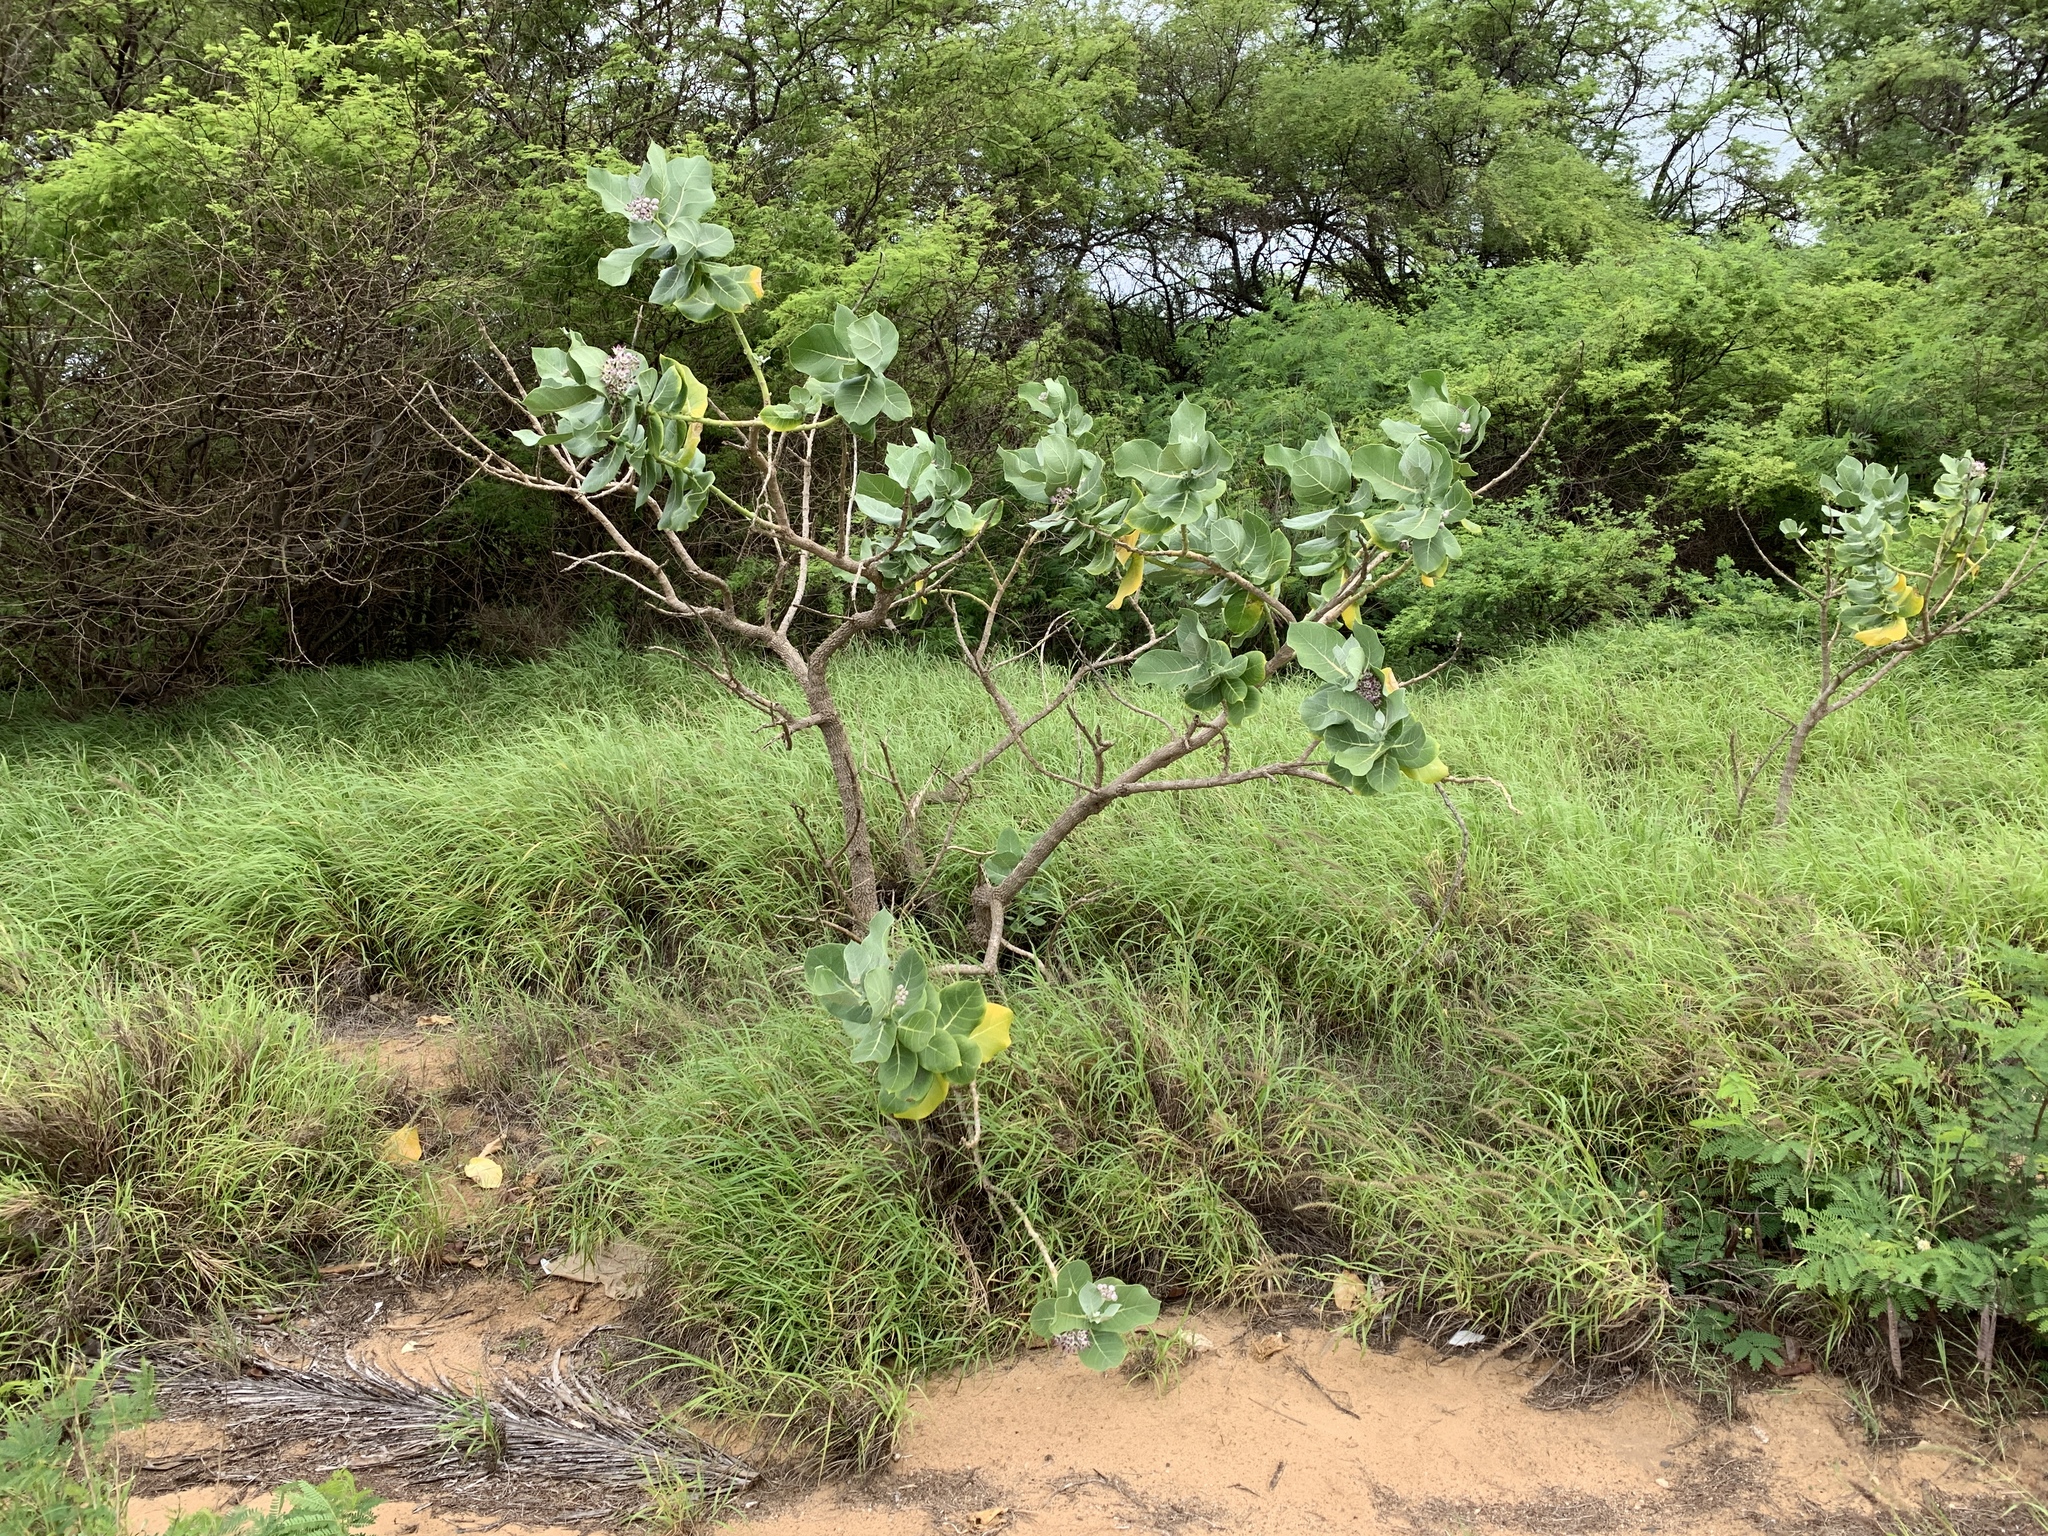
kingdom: Plantae
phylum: Tracheophyta
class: Magnoliopsida
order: Gentianales
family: Apocynaceae
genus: Calotropis
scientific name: Calotropis procera
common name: Roostertree
